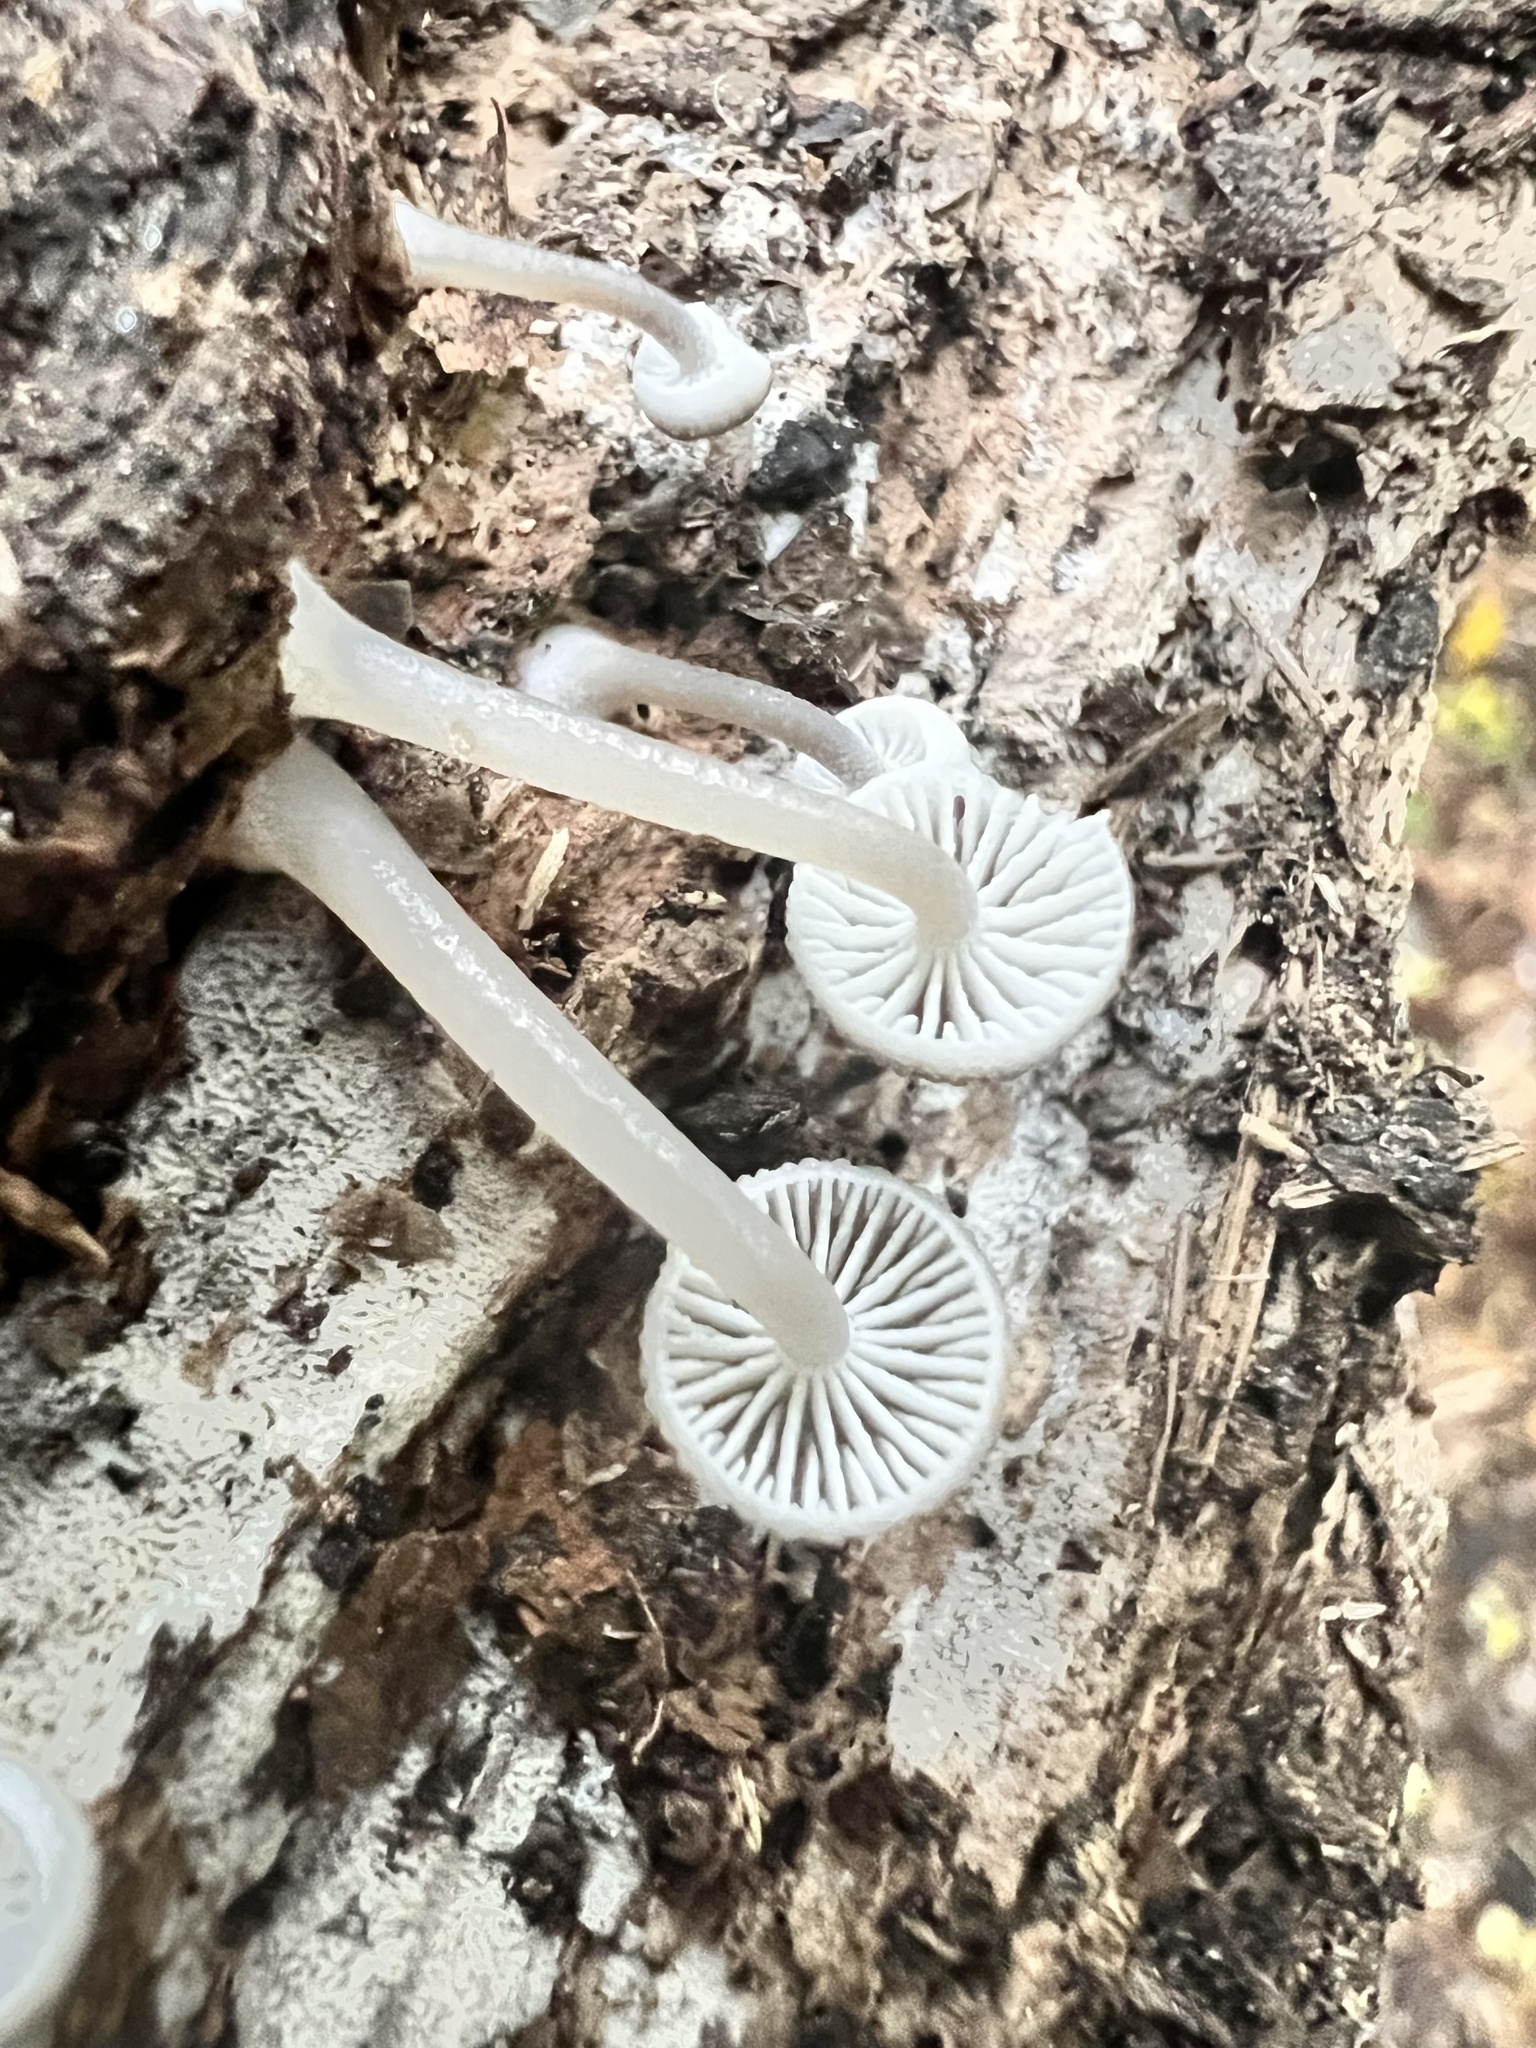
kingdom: Fungi
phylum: Basidiomycota
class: Agaricomycetes
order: Agaricales
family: Mycenaceae
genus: Roridomyces
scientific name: Roridomyces austrororidus
